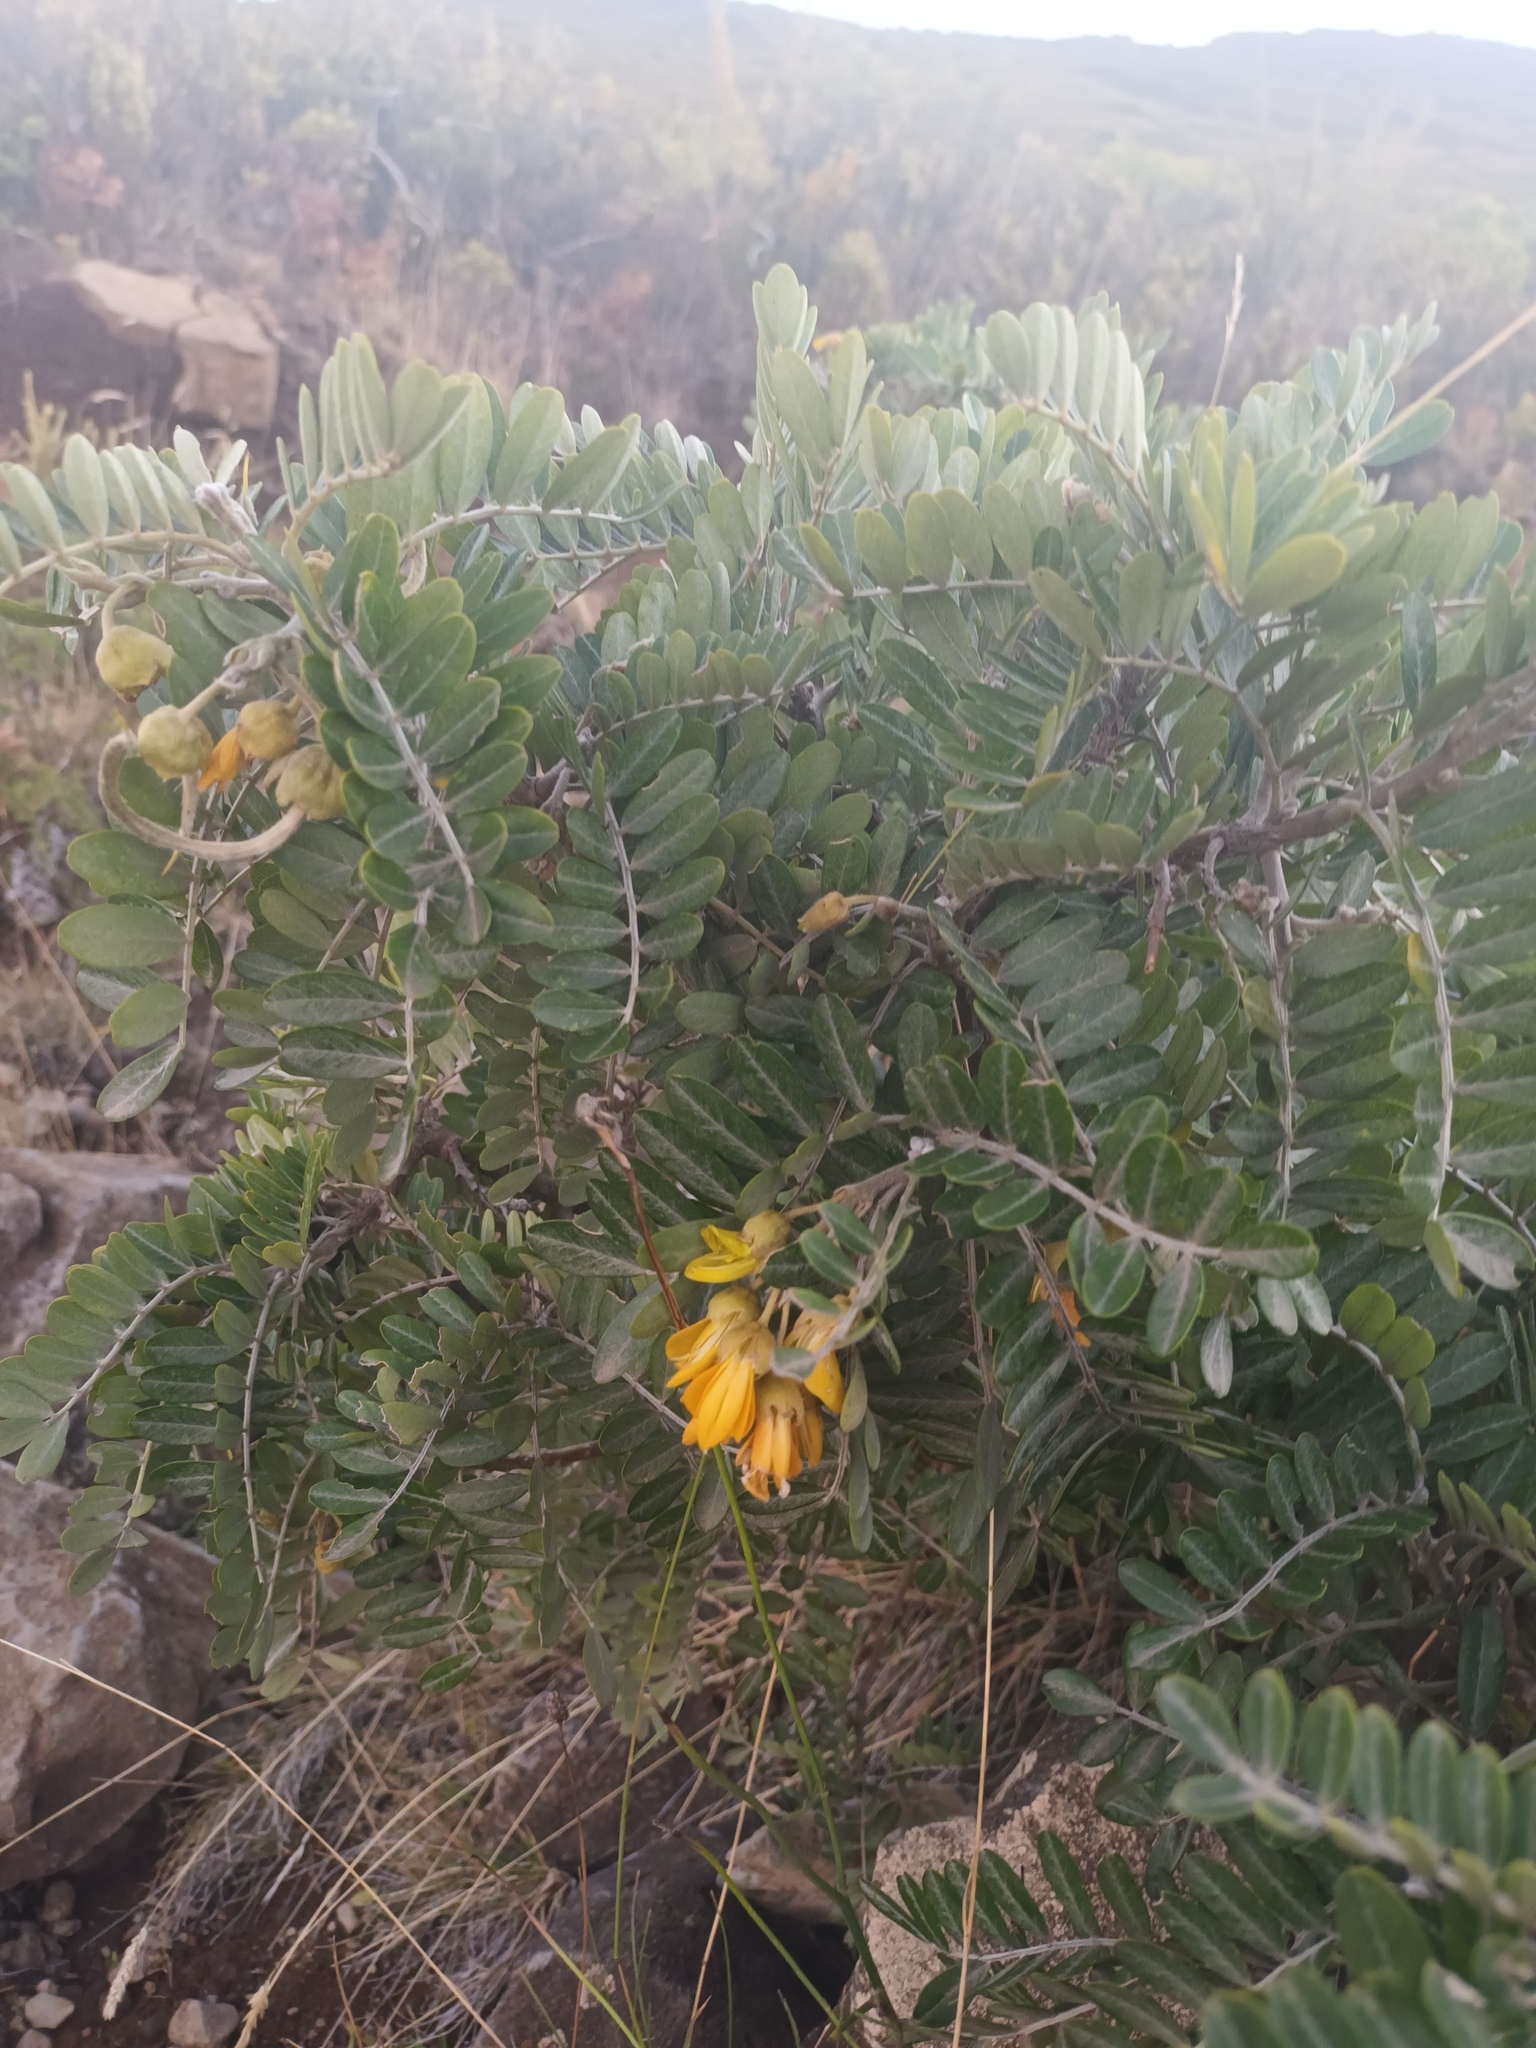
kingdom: Plantae
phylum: Tracheophyta
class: Magnoliopsida
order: Fabales
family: Fabaceae
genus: Sophora
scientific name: Sophora chrysophylla
